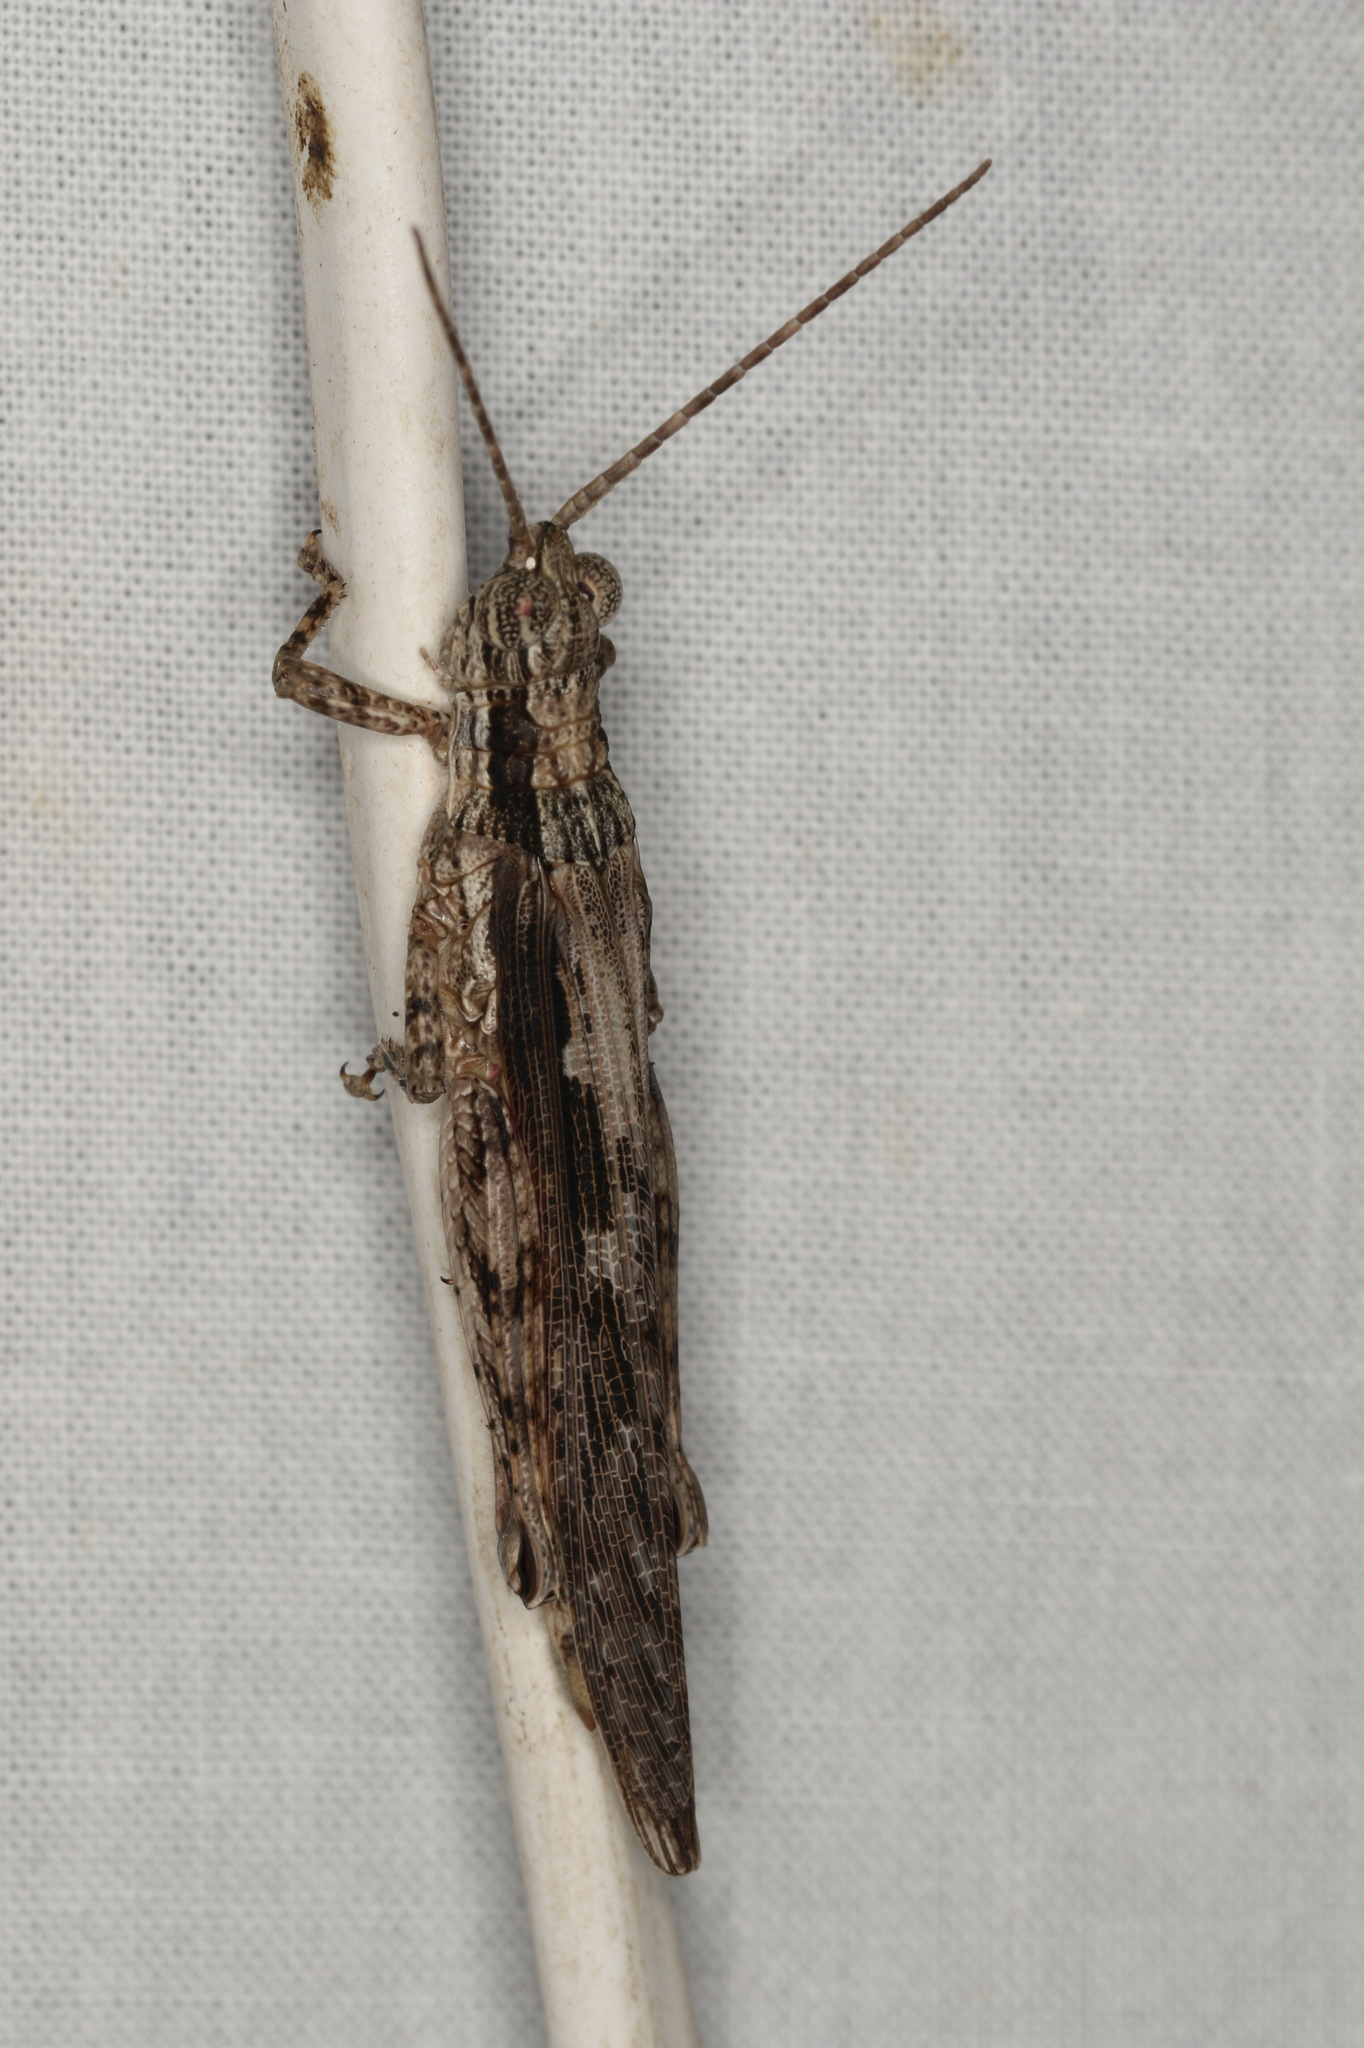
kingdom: Animalia
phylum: Arthropoda
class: Insecta
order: Orthoptera
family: Acrididae
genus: Coryphistes
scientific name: Coryphistes ruricola
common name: Bark-mimicking grasshopper
